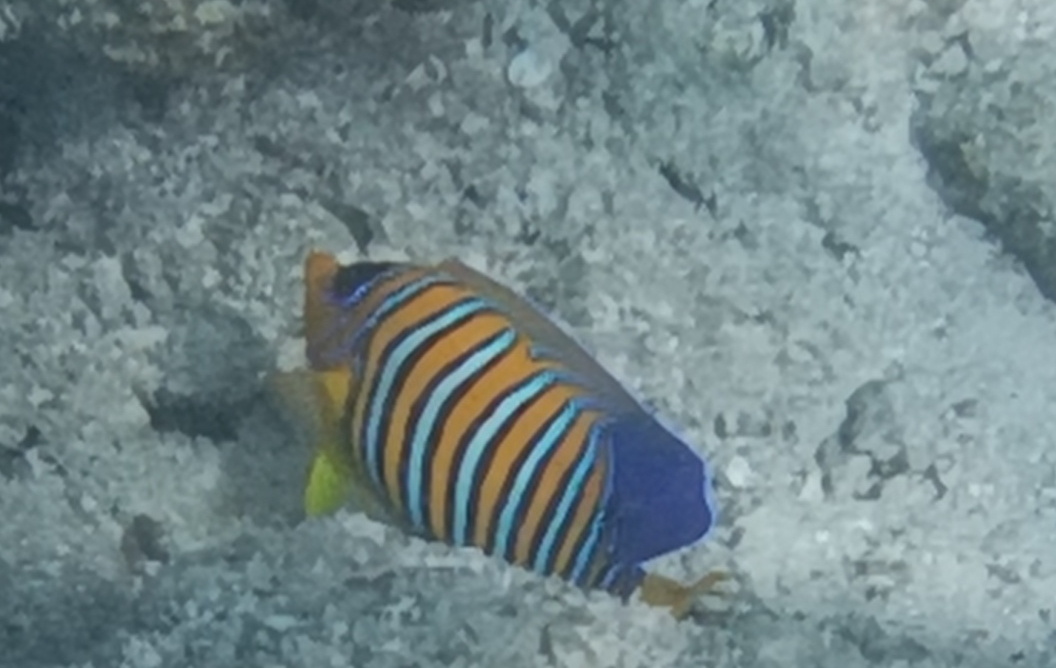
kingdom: Animalia
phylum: Chordata
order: Perciformes
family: Pomacanthidae
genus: Pygoplites
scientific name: Pygoplites diacanthus
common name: Regal angelfish
